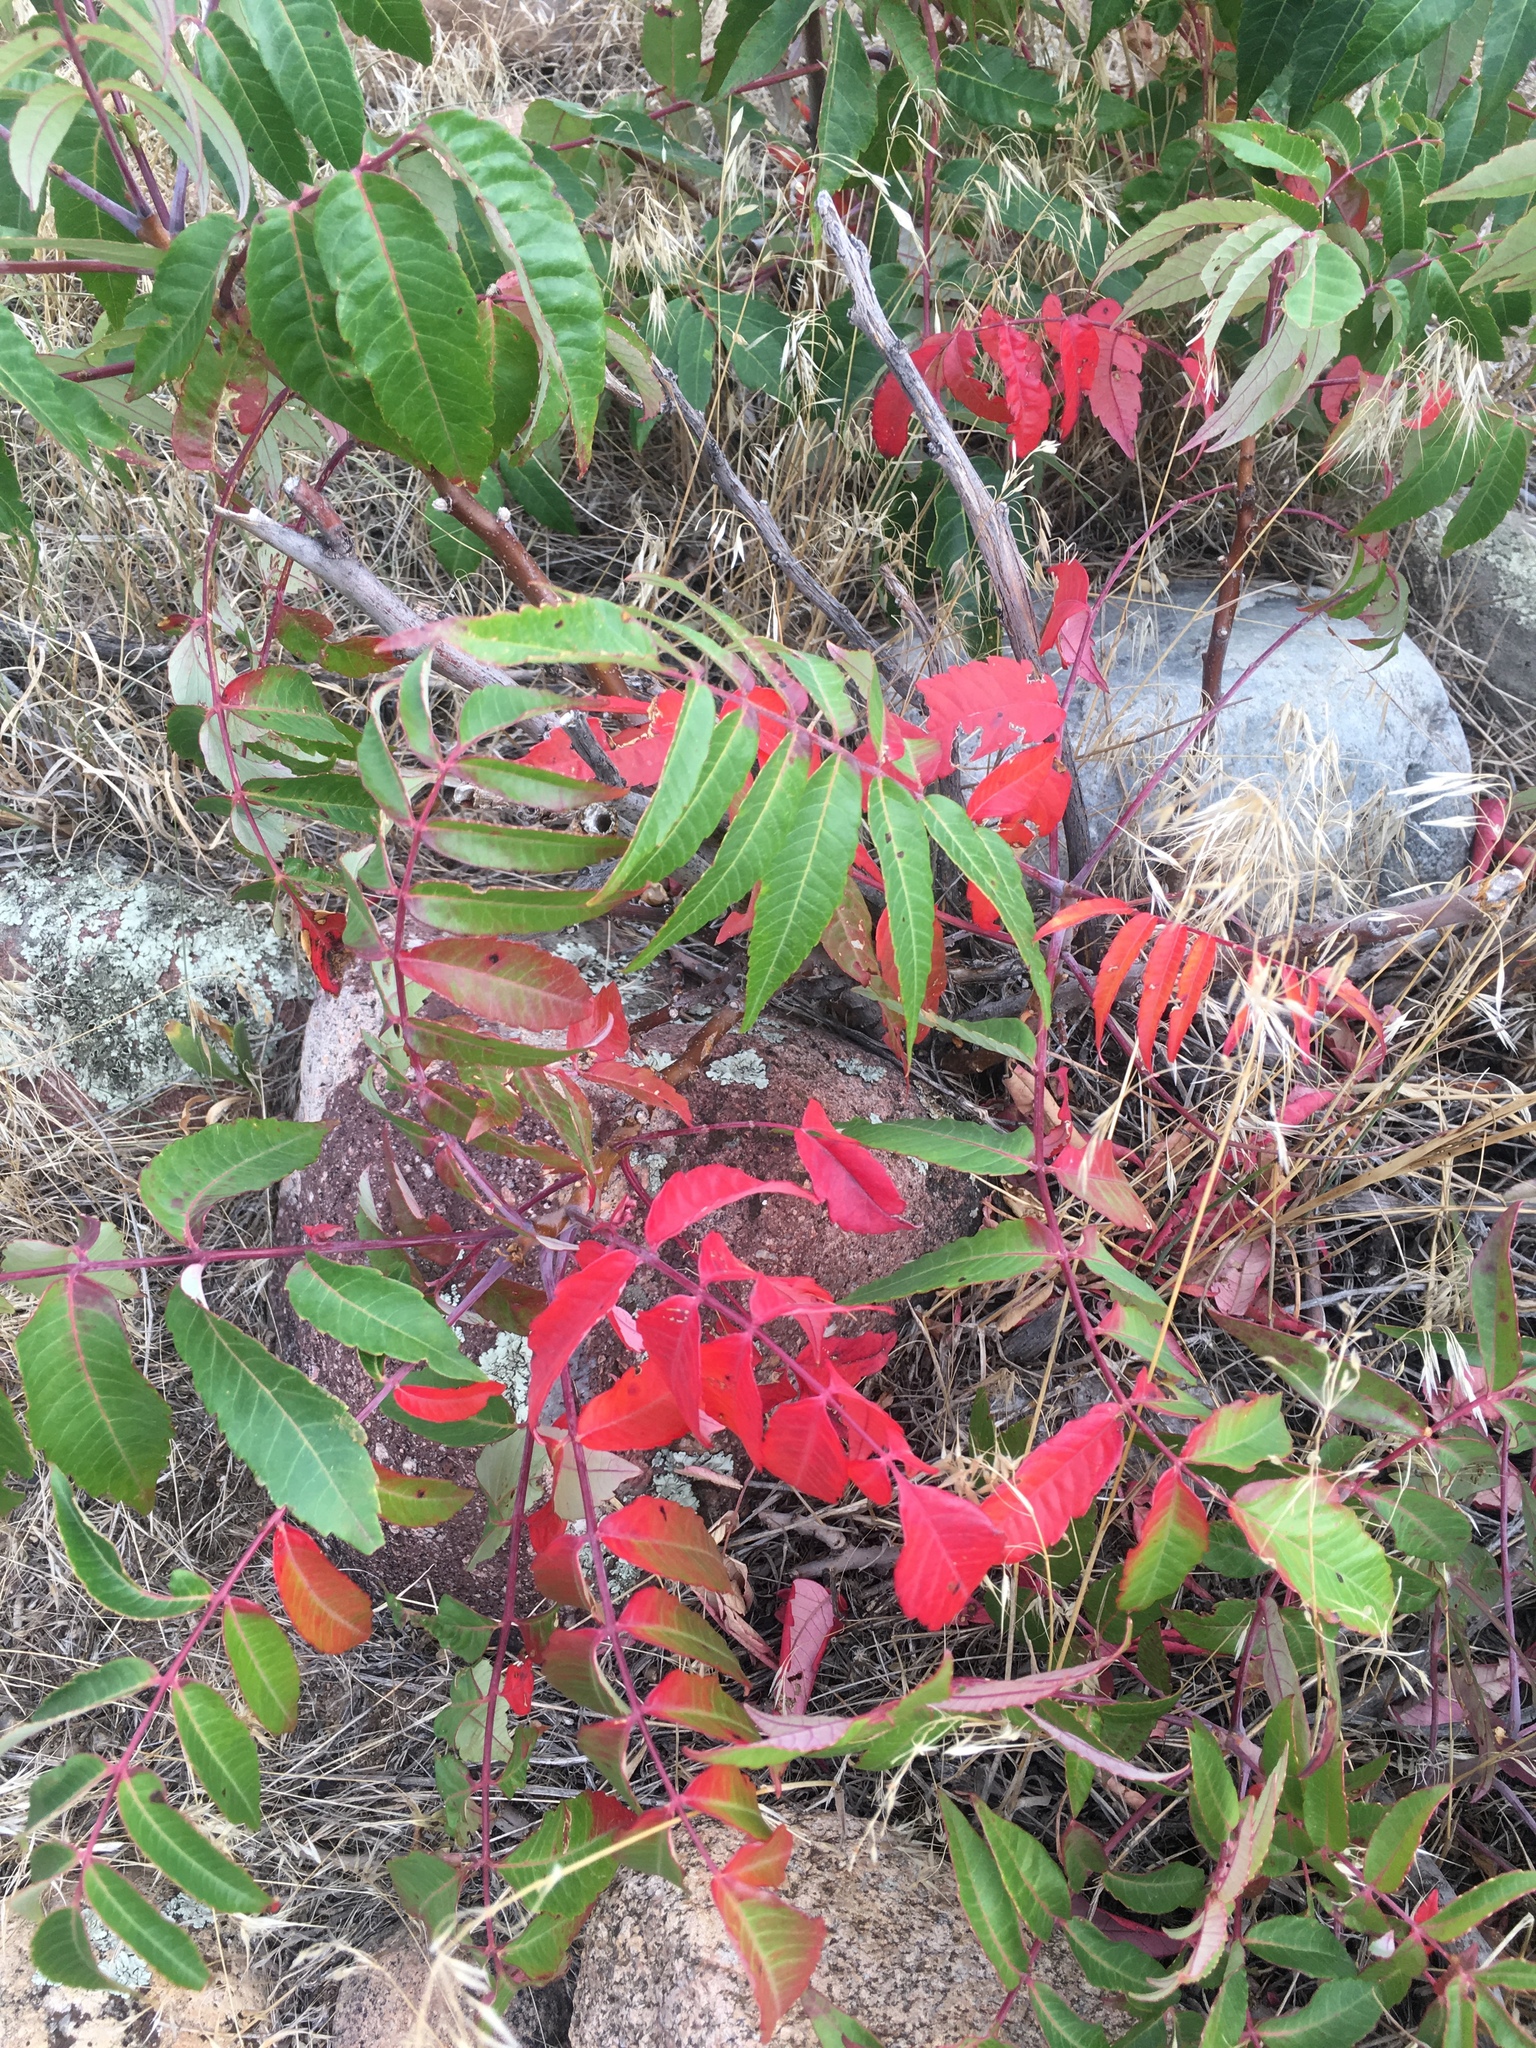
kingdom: Plantae
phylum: Tracheophyta
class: Magnoliopsida
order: Sapindales
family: Anacardiaceae
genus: Rhus
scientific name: Rhus glabra
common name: Scarlet sumac
